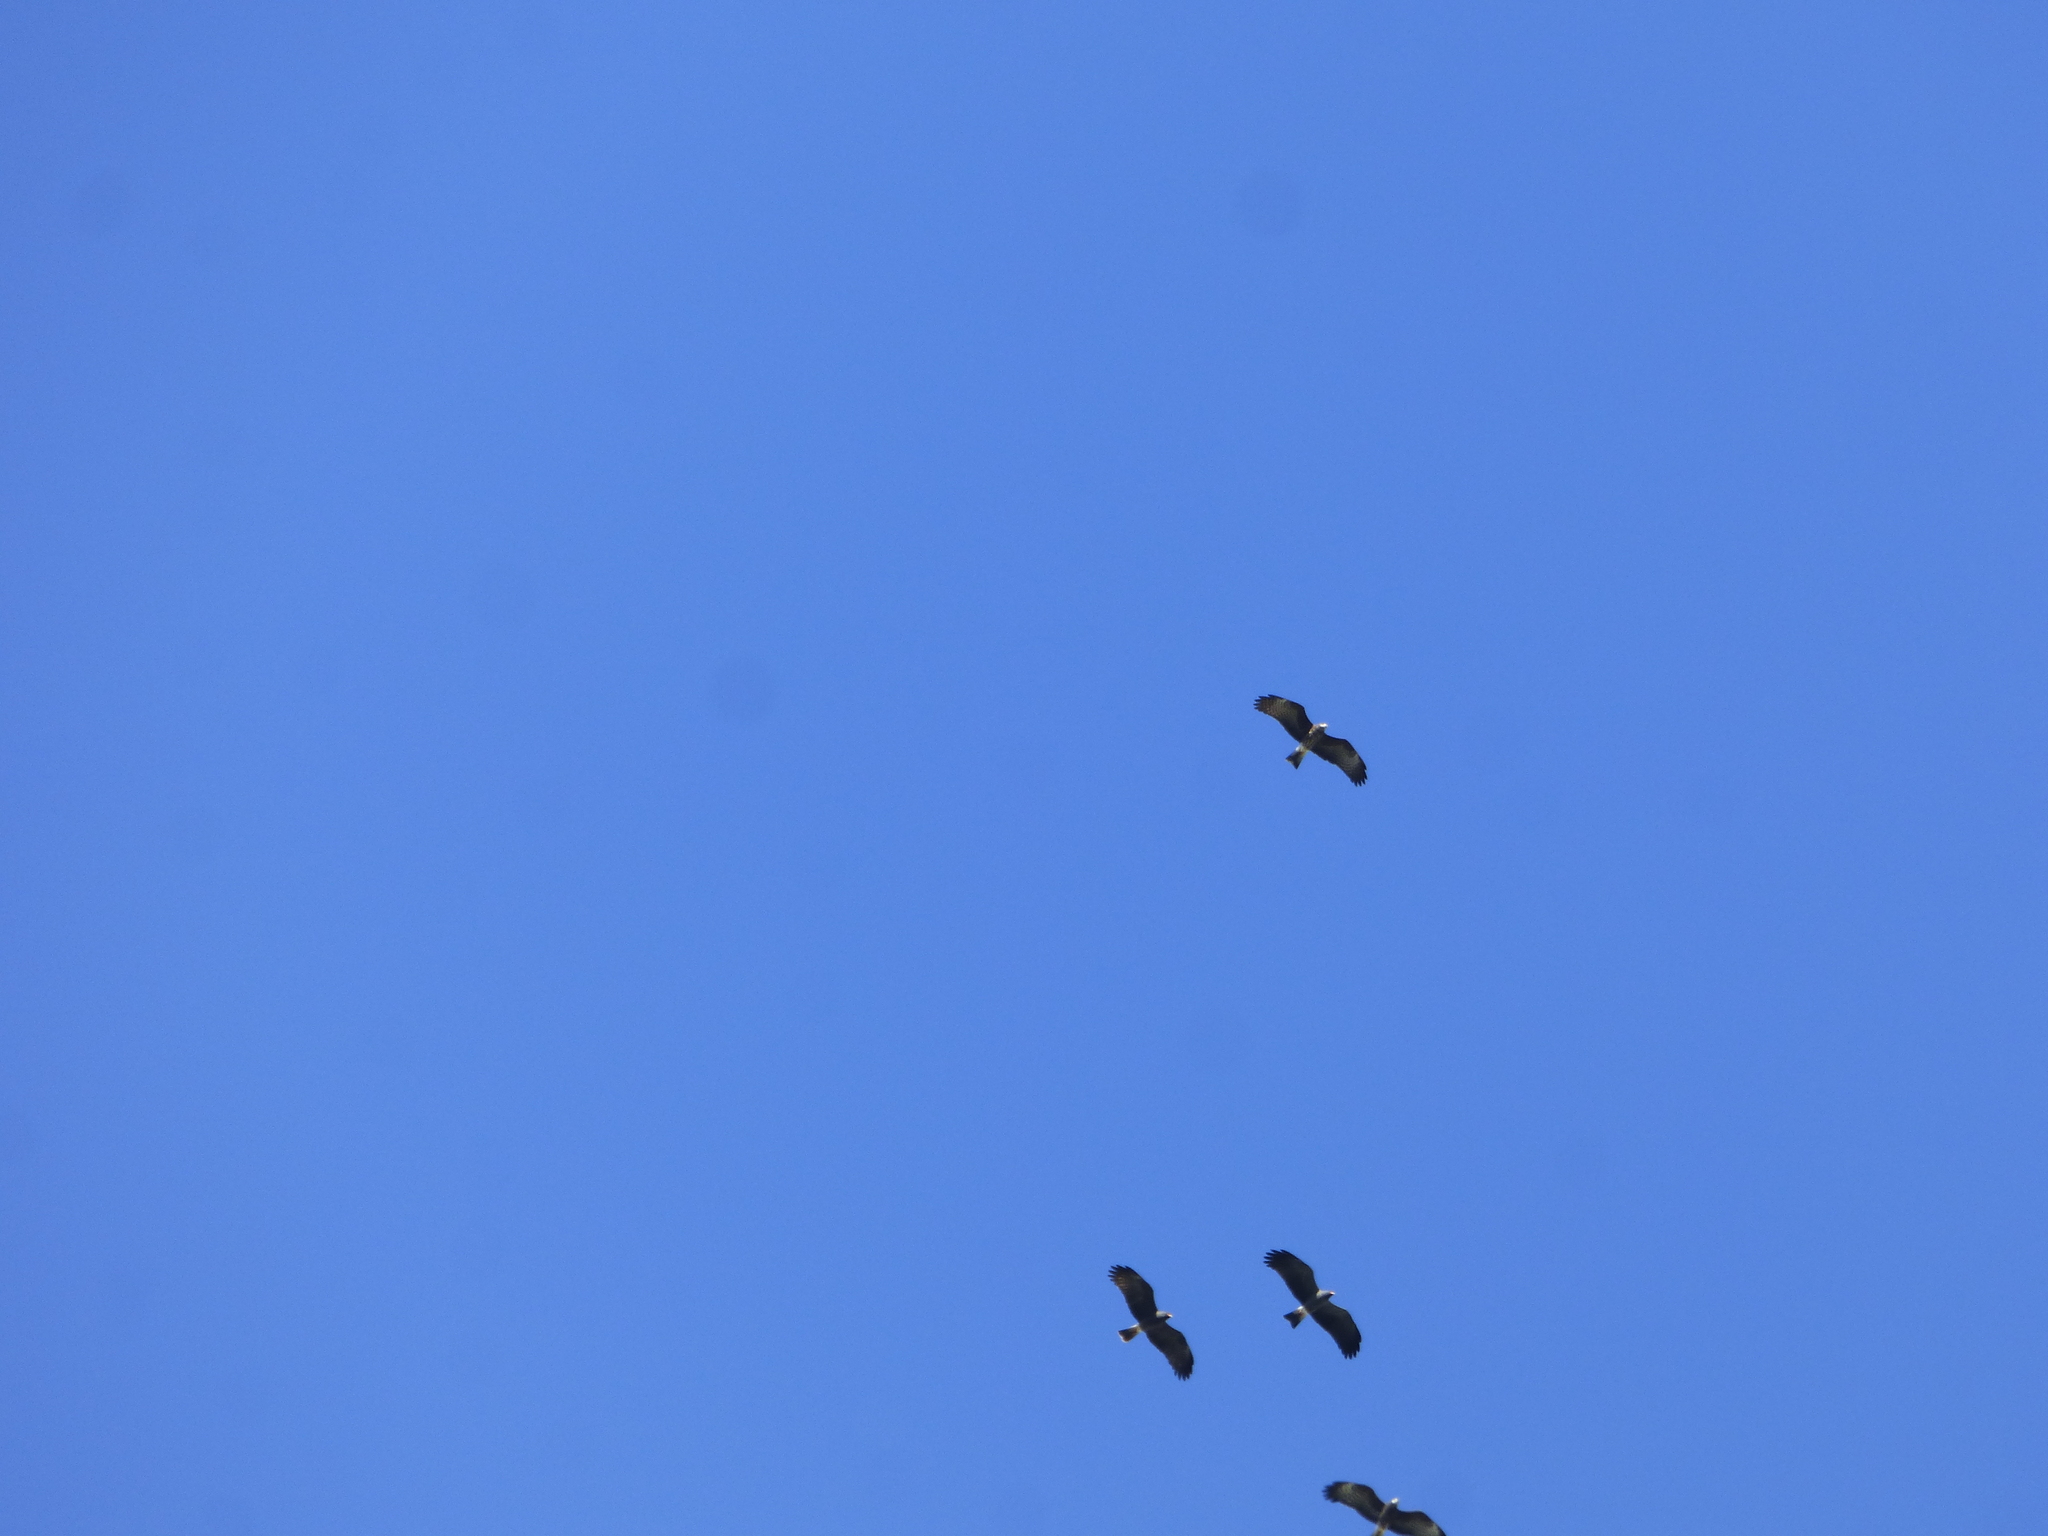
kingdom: Animalia
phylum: Chordata
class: Aves
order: Accipitriformes
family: Accipitridae
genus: Rostrhamus
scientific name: Rostrhamus sociabilis
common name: Snail kite
